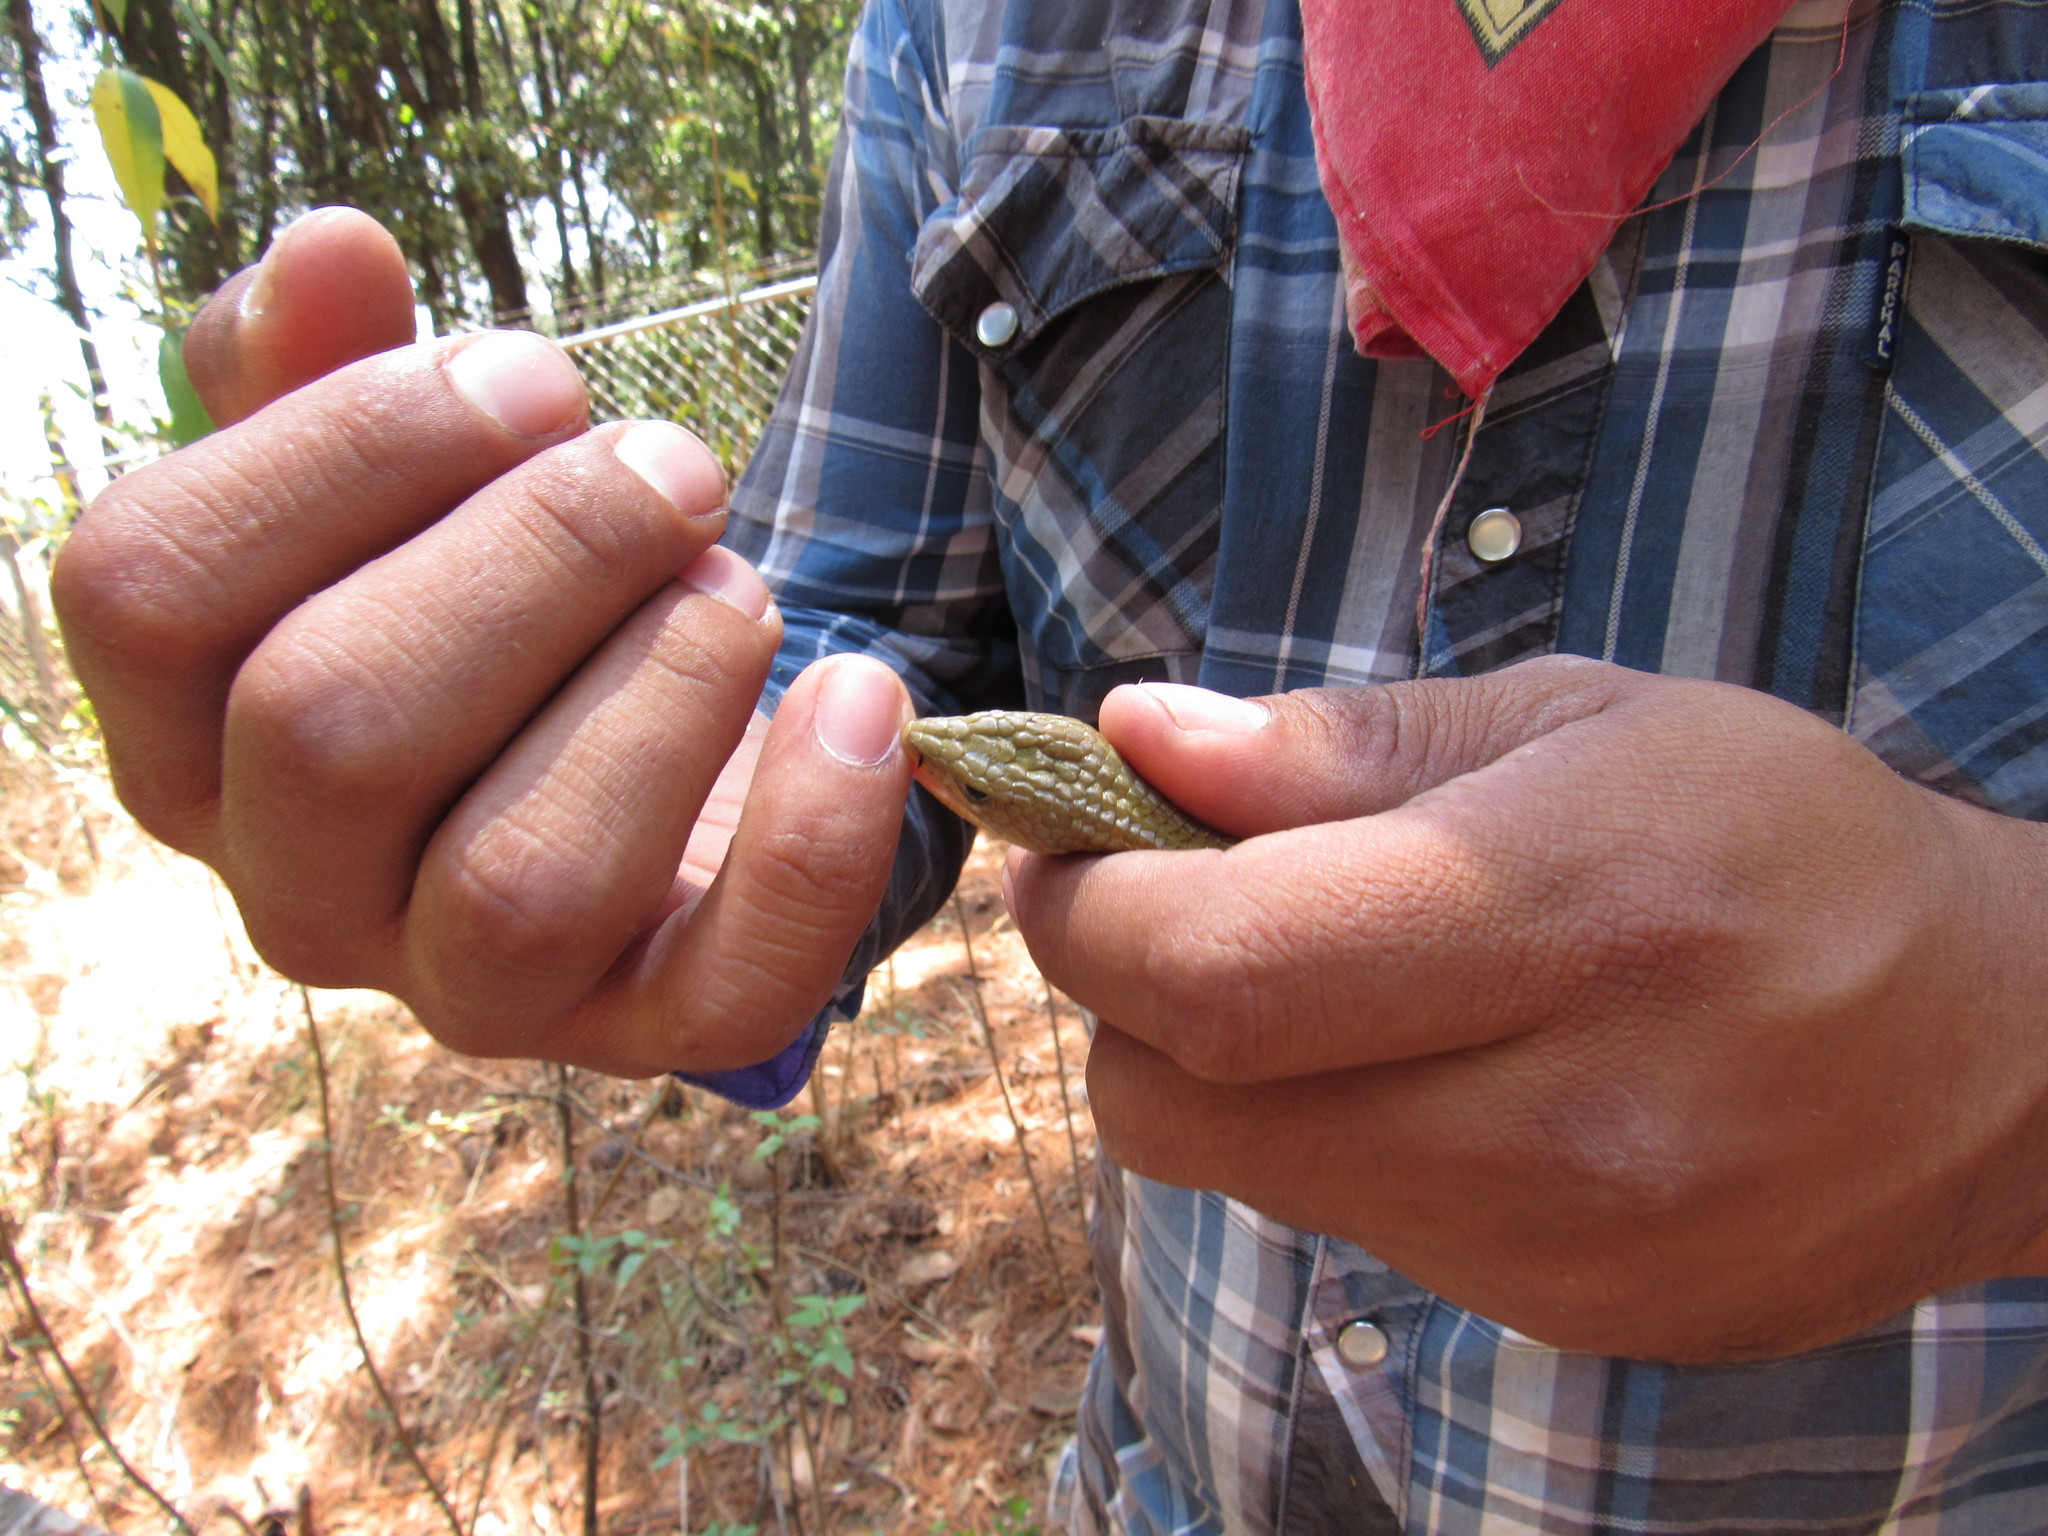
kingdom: Animalia
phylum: Chordata
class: Squamata
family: Anguidae
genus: Barisia
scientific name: Barisia imbricata
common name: Imbricate alligator lizard
